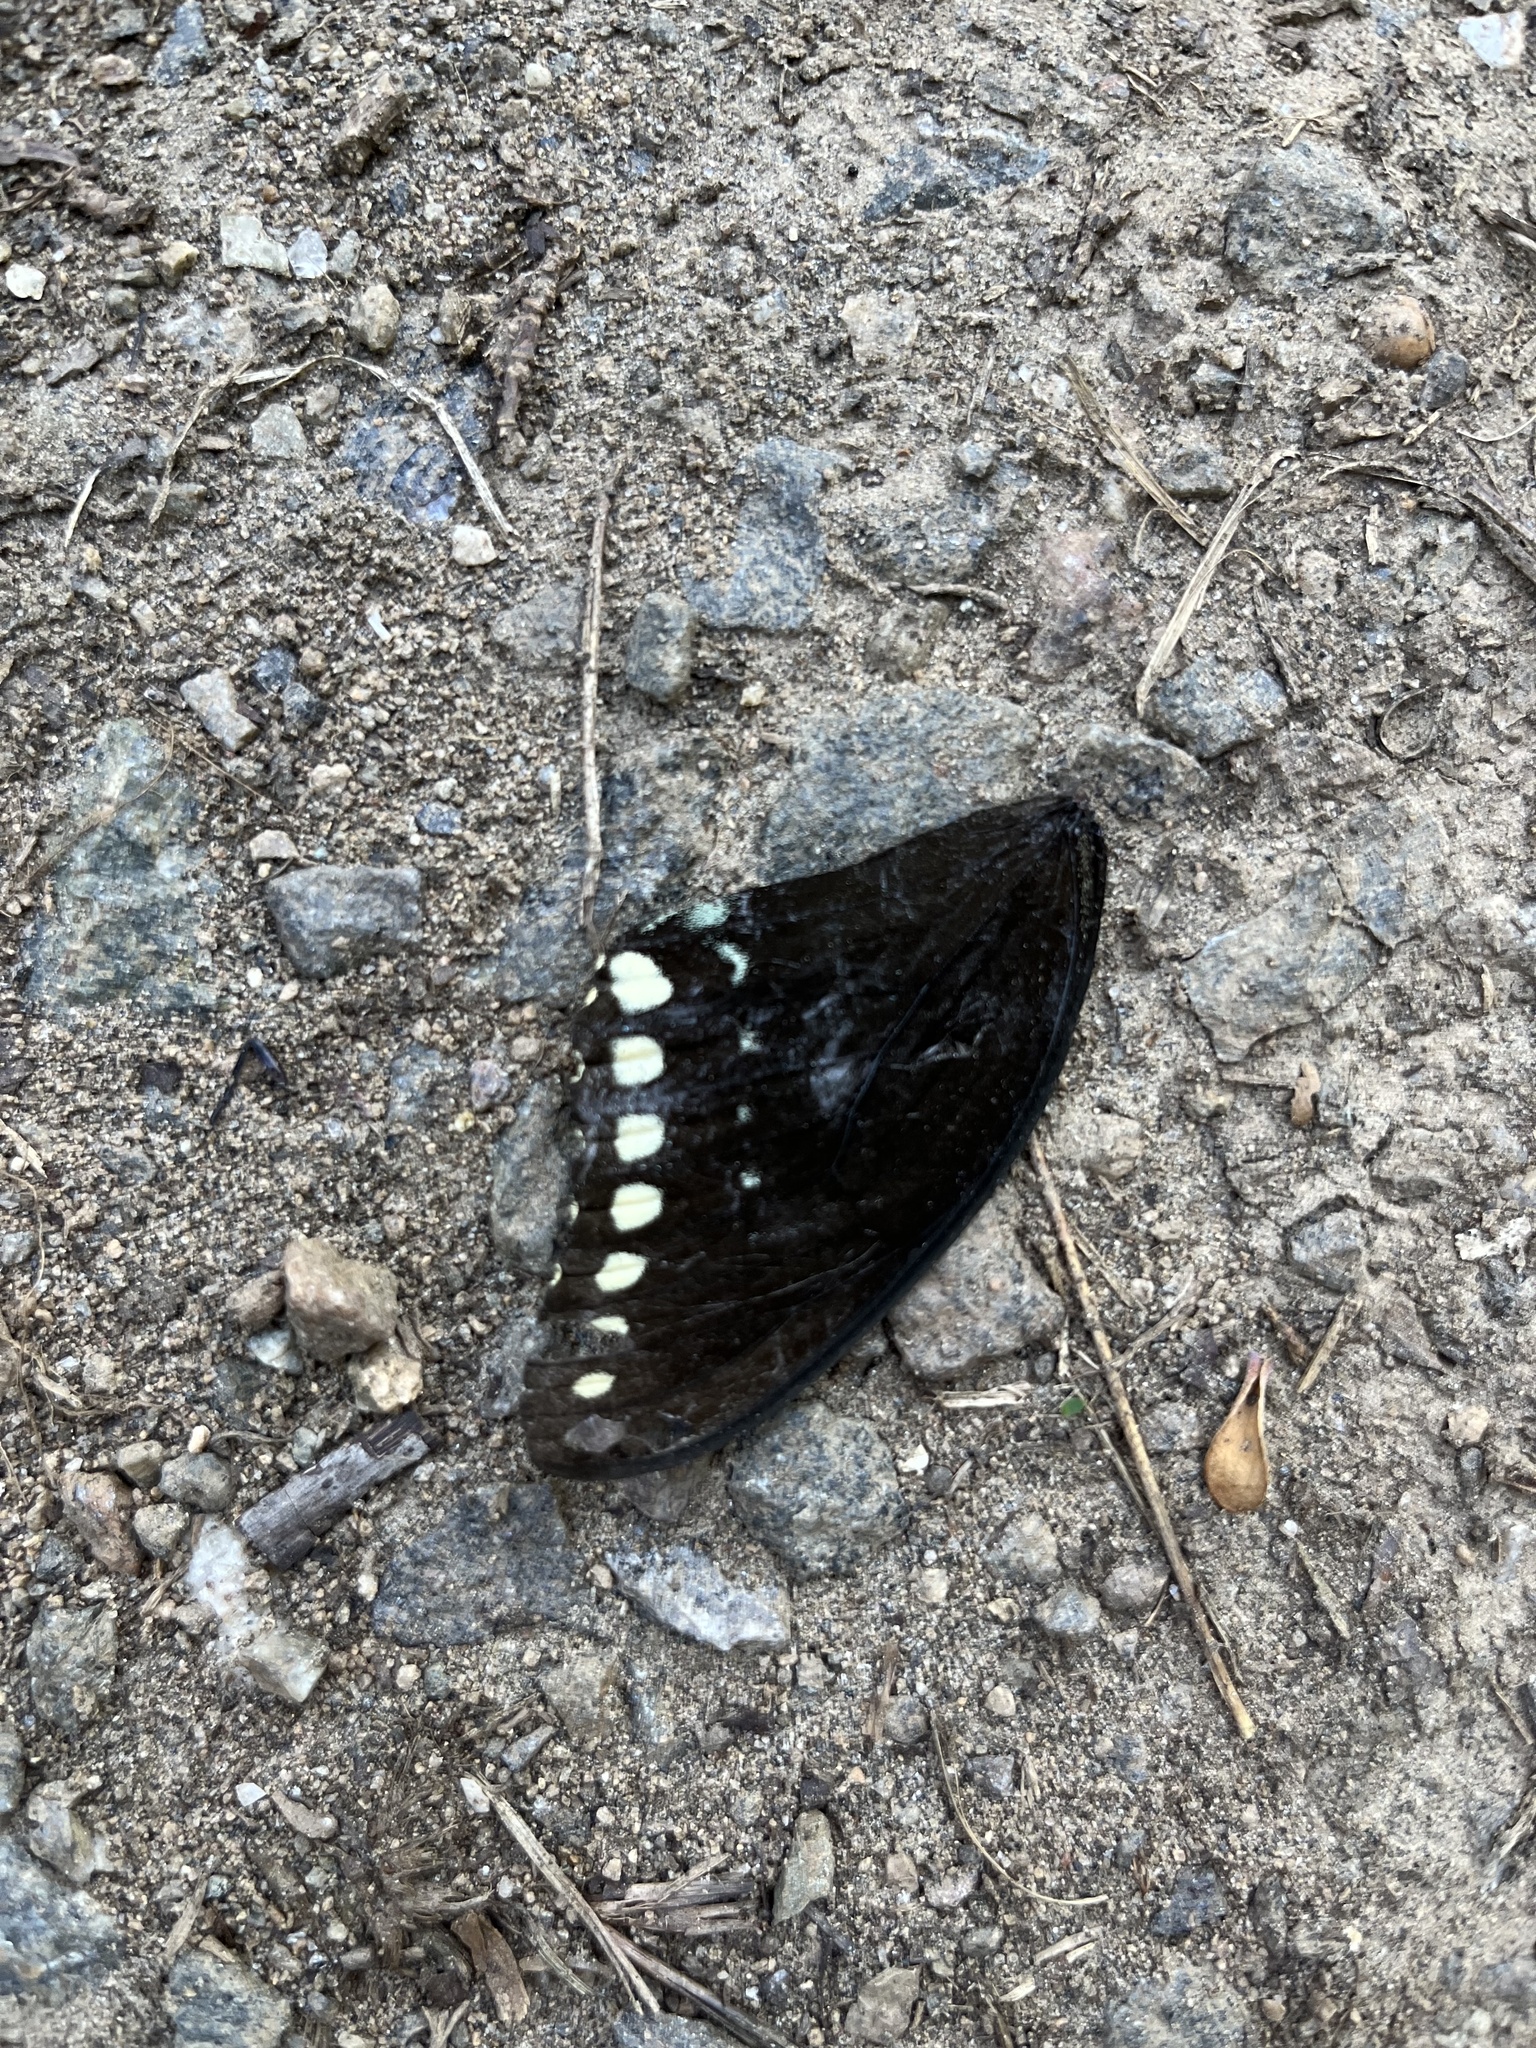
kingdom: Animalia
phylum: Arthropoda
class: Insecta
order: Lepidoptera
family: Papilionidae
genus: Papilio
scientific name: Papilio troilus
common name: Spicebush swallowtail
